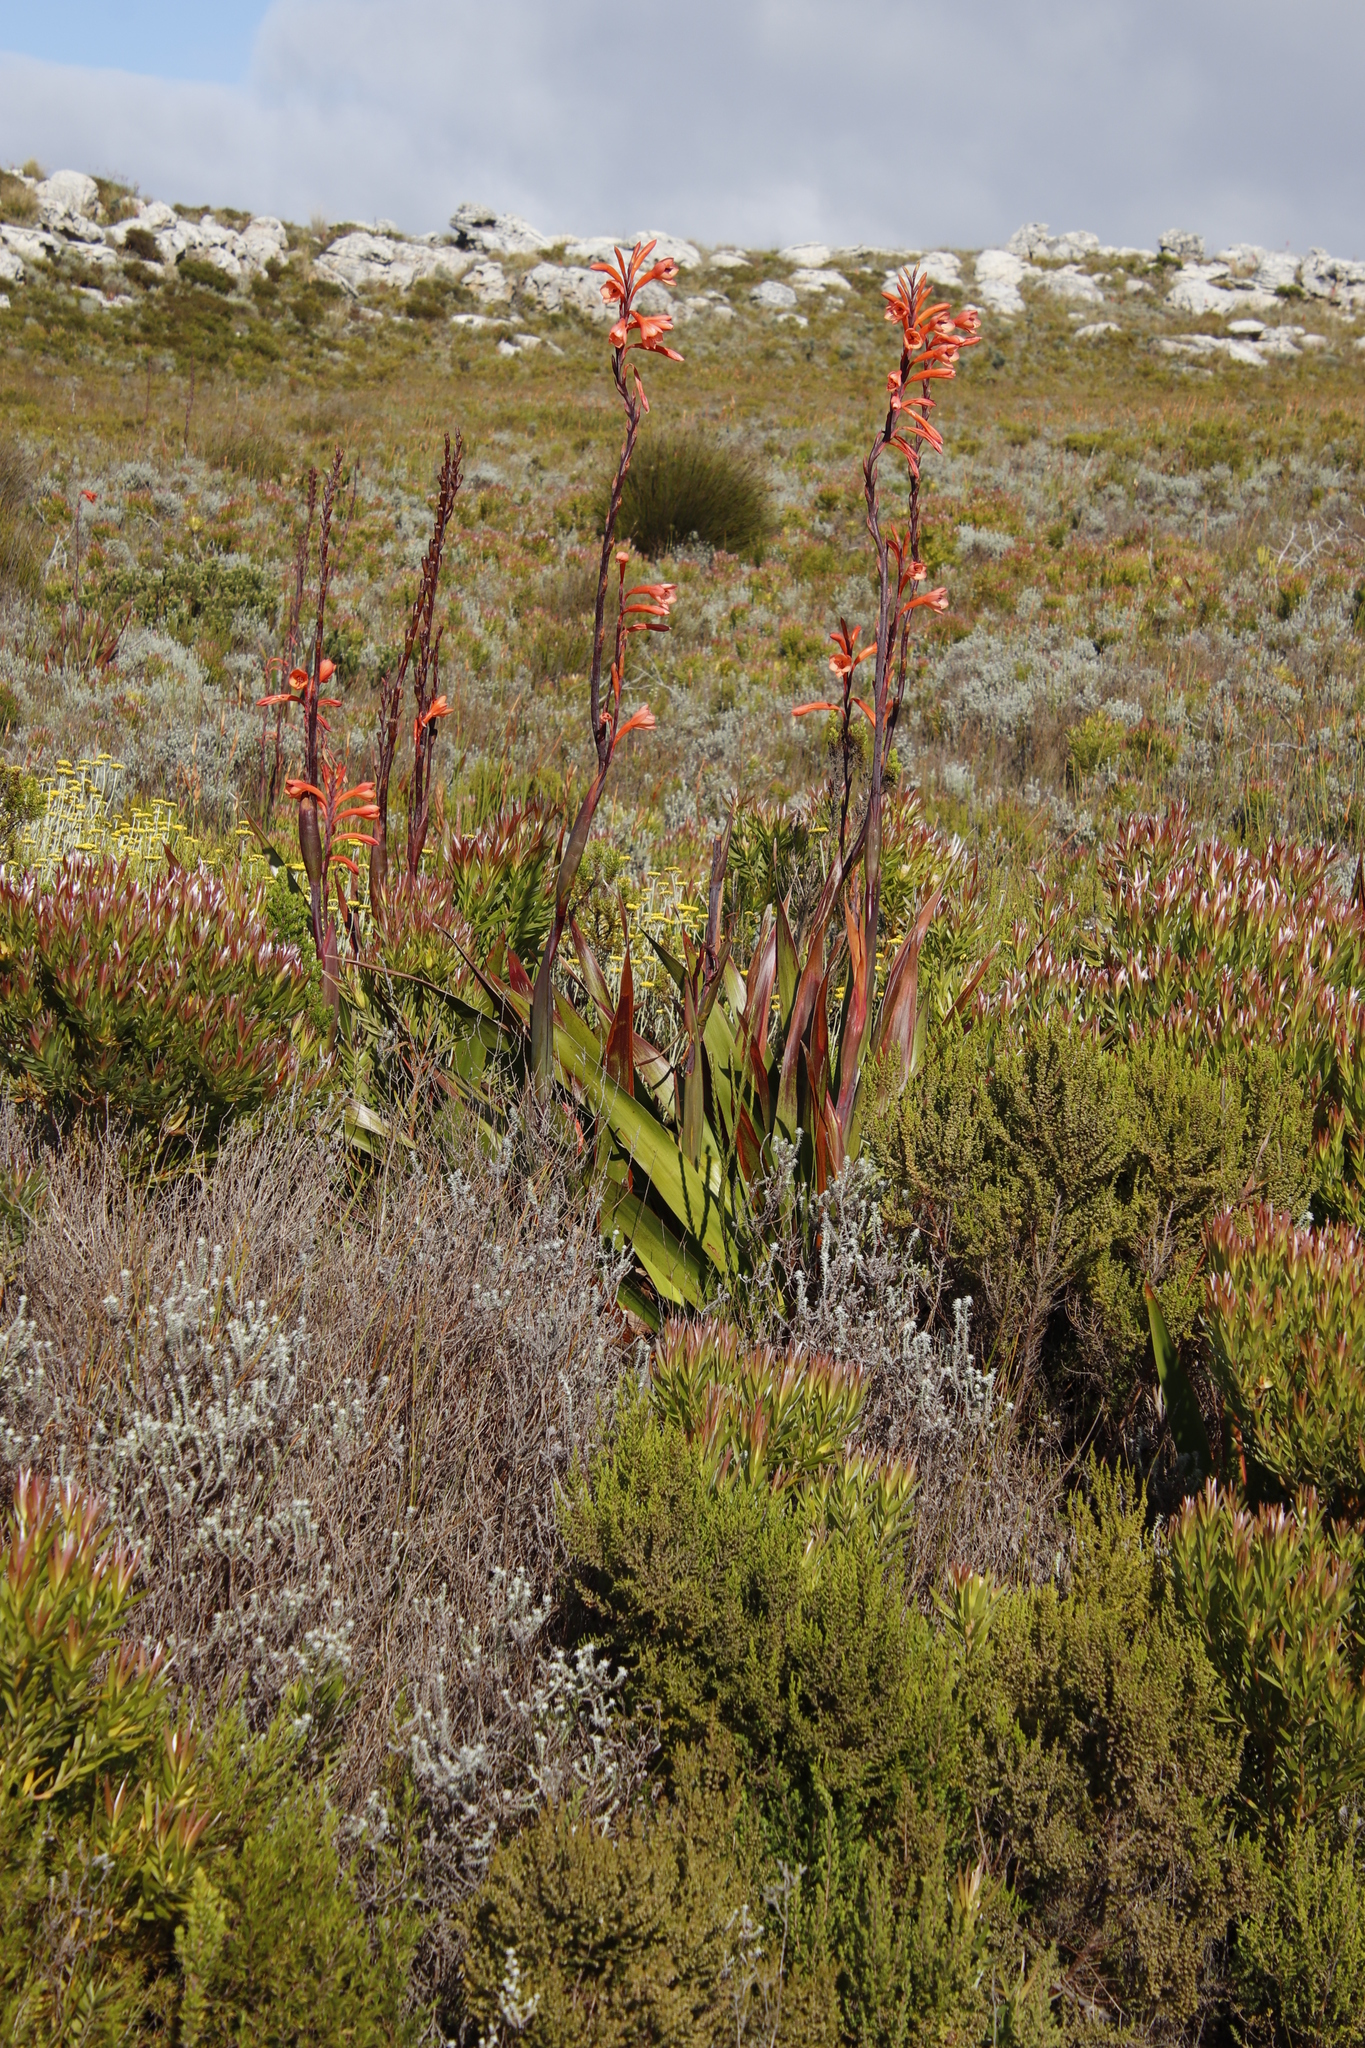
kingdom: Plantae
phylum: Tracheophyta
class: Liliopsida
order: Asparagales
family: Iridaceae
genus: Watsonia
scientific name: Watsonia tabularis
